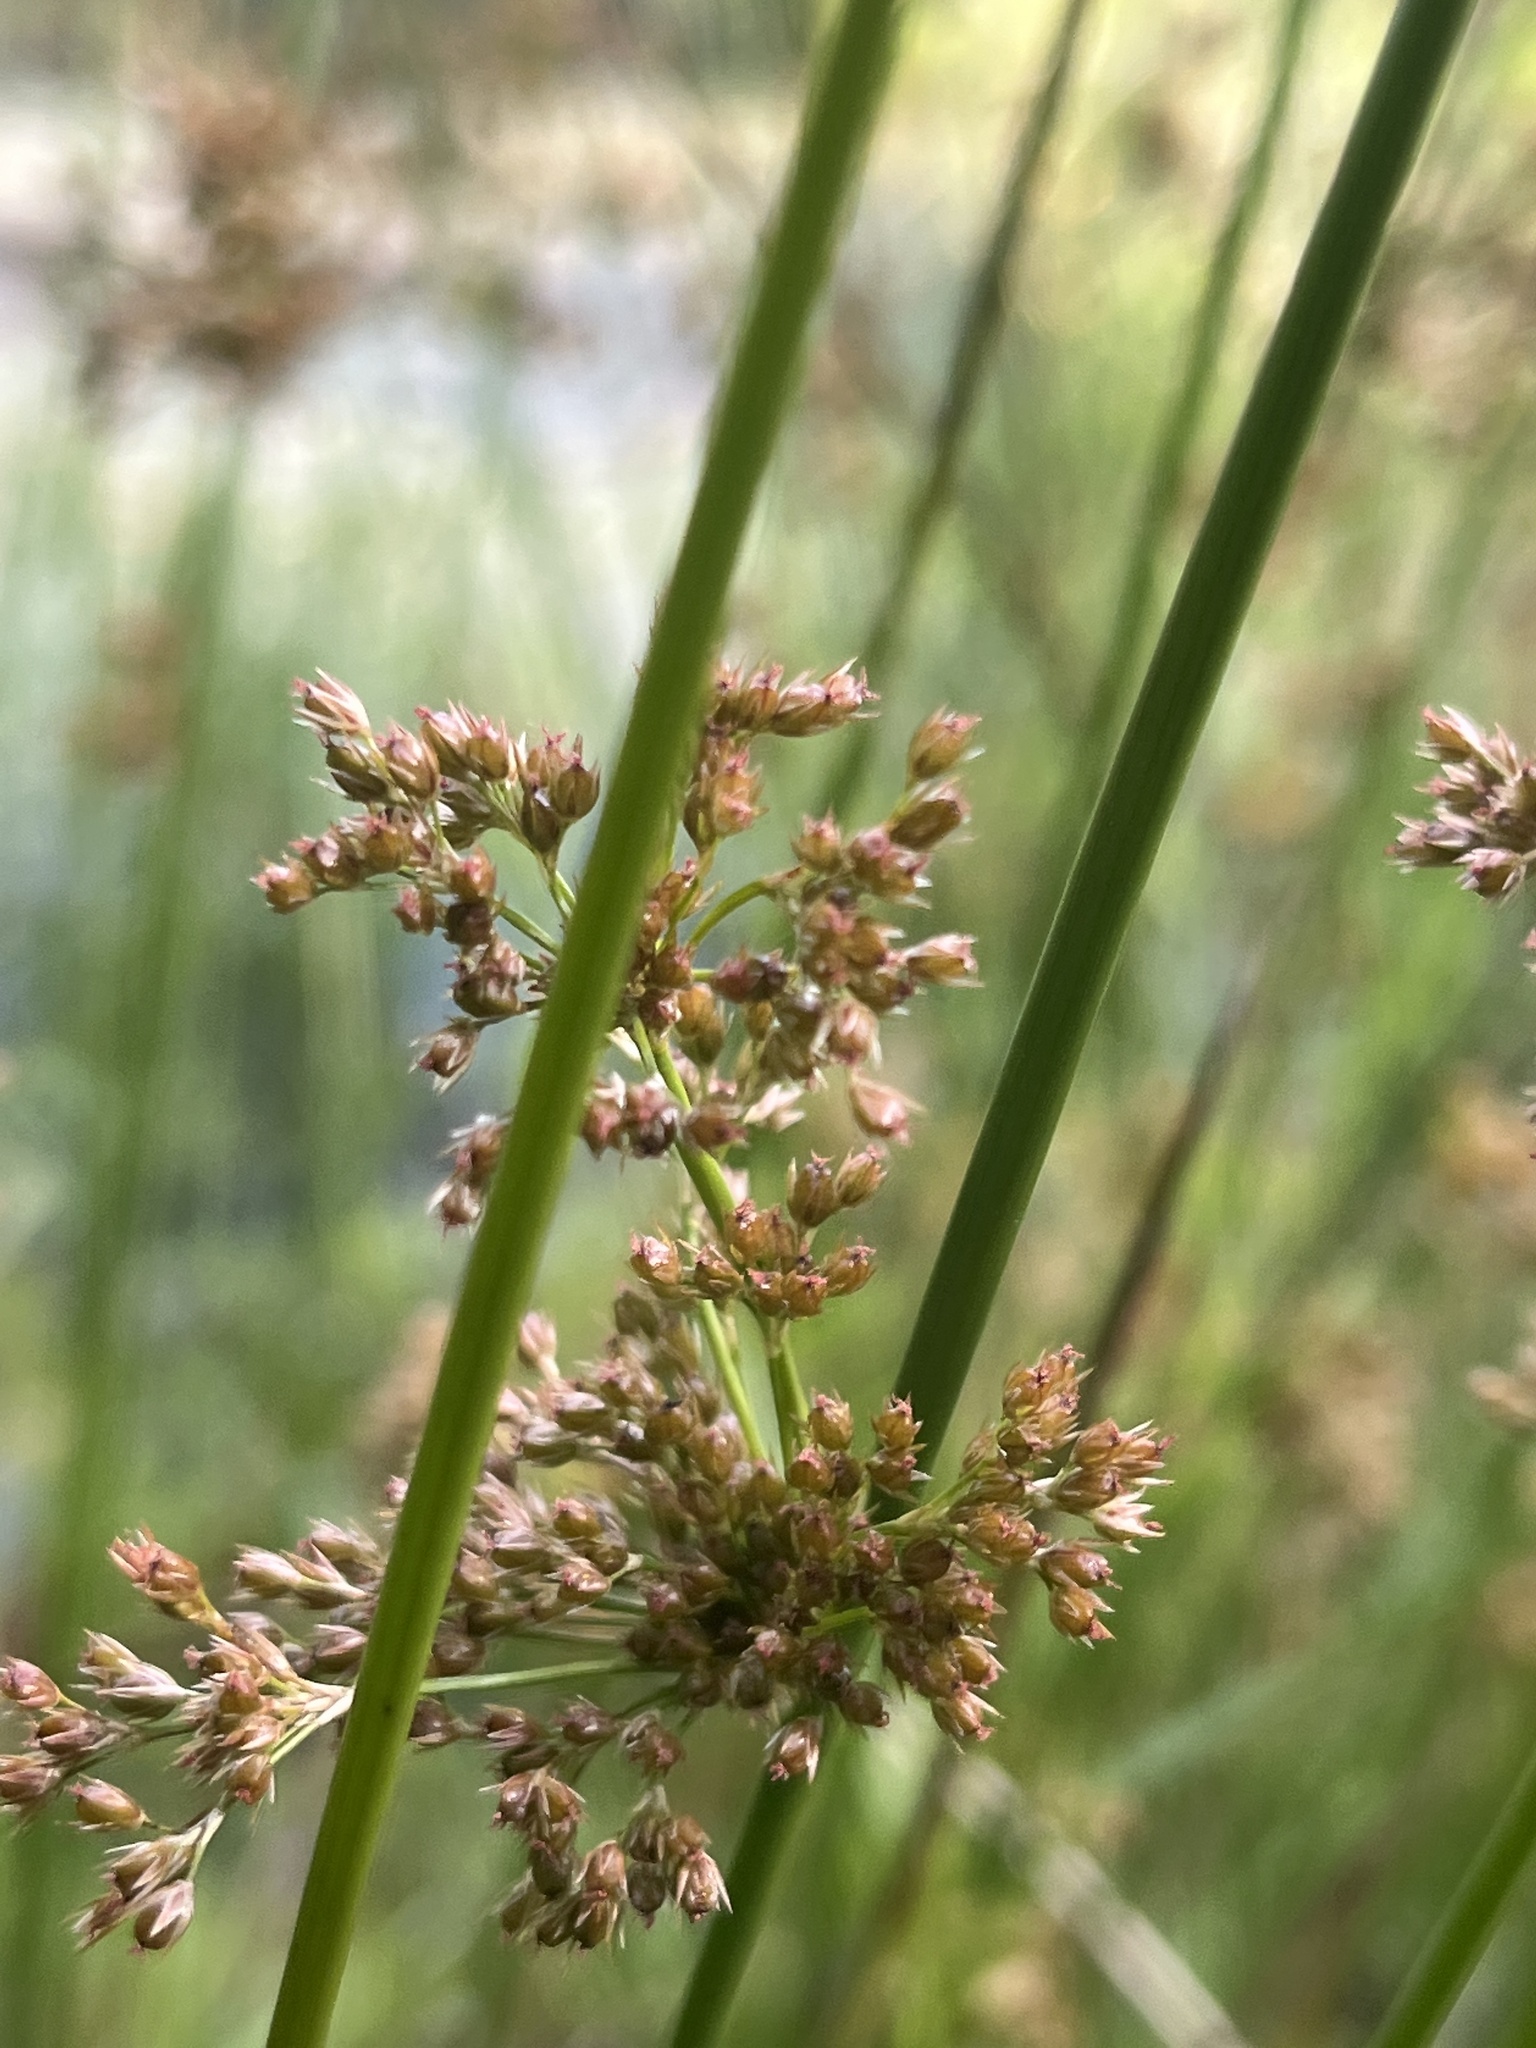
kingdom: Plantae
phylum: Tracheophyta
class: Liliopsida
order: Poales
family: Juncaceae
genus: Juncus
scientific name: Juncus effusus
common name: Soft rush
